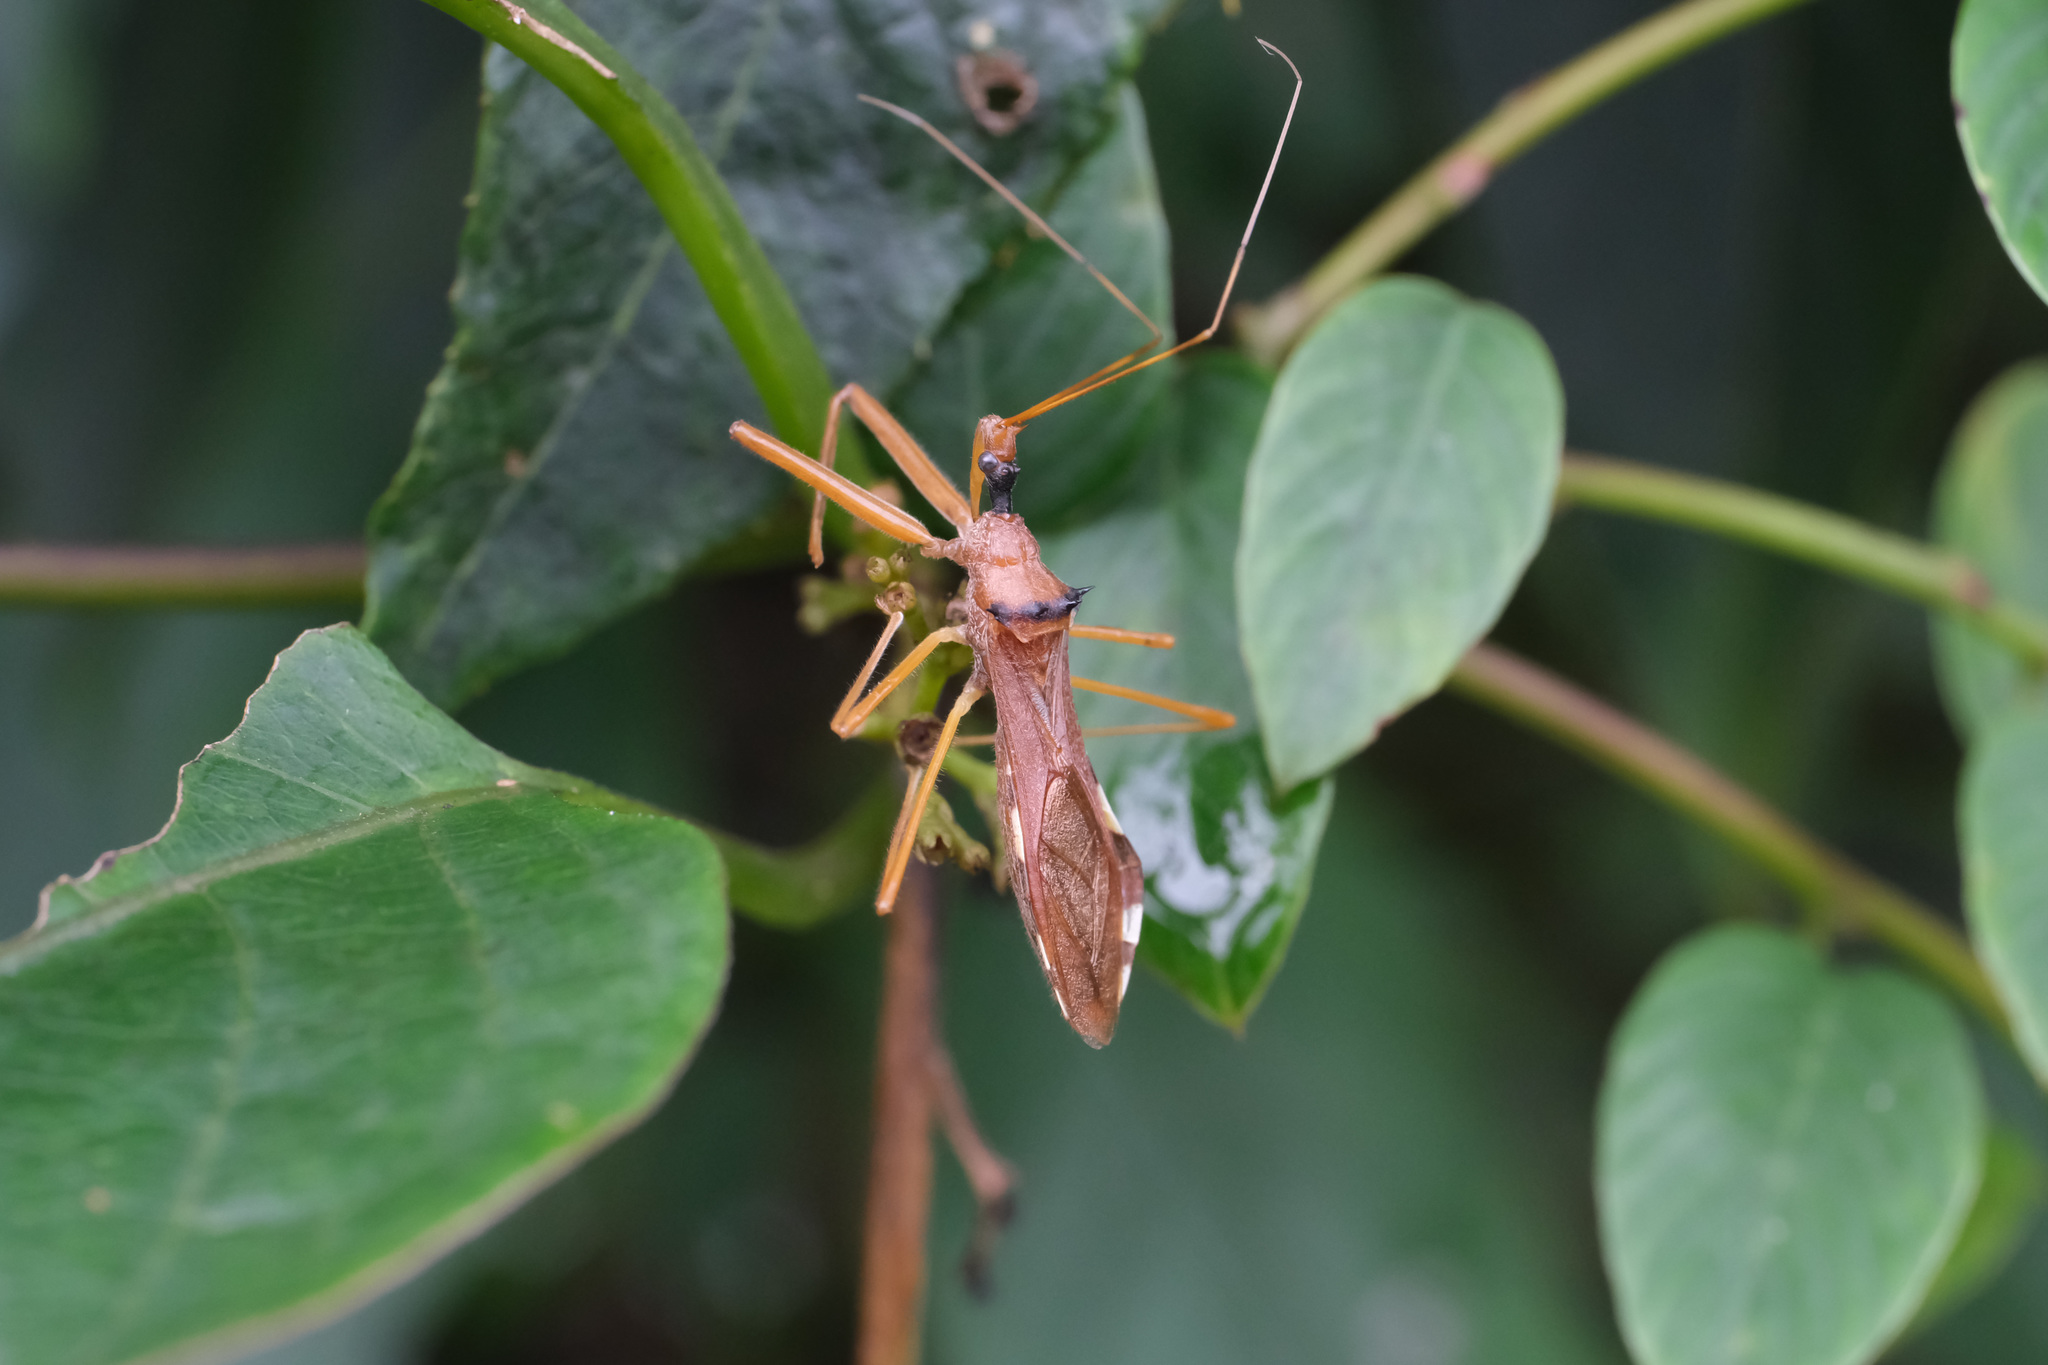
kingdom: Animalia
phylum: Arthropoda
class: Insecta
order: Hemiptera
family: Reduviidae
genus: Epidaus
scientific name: Epidaus sexspinus
